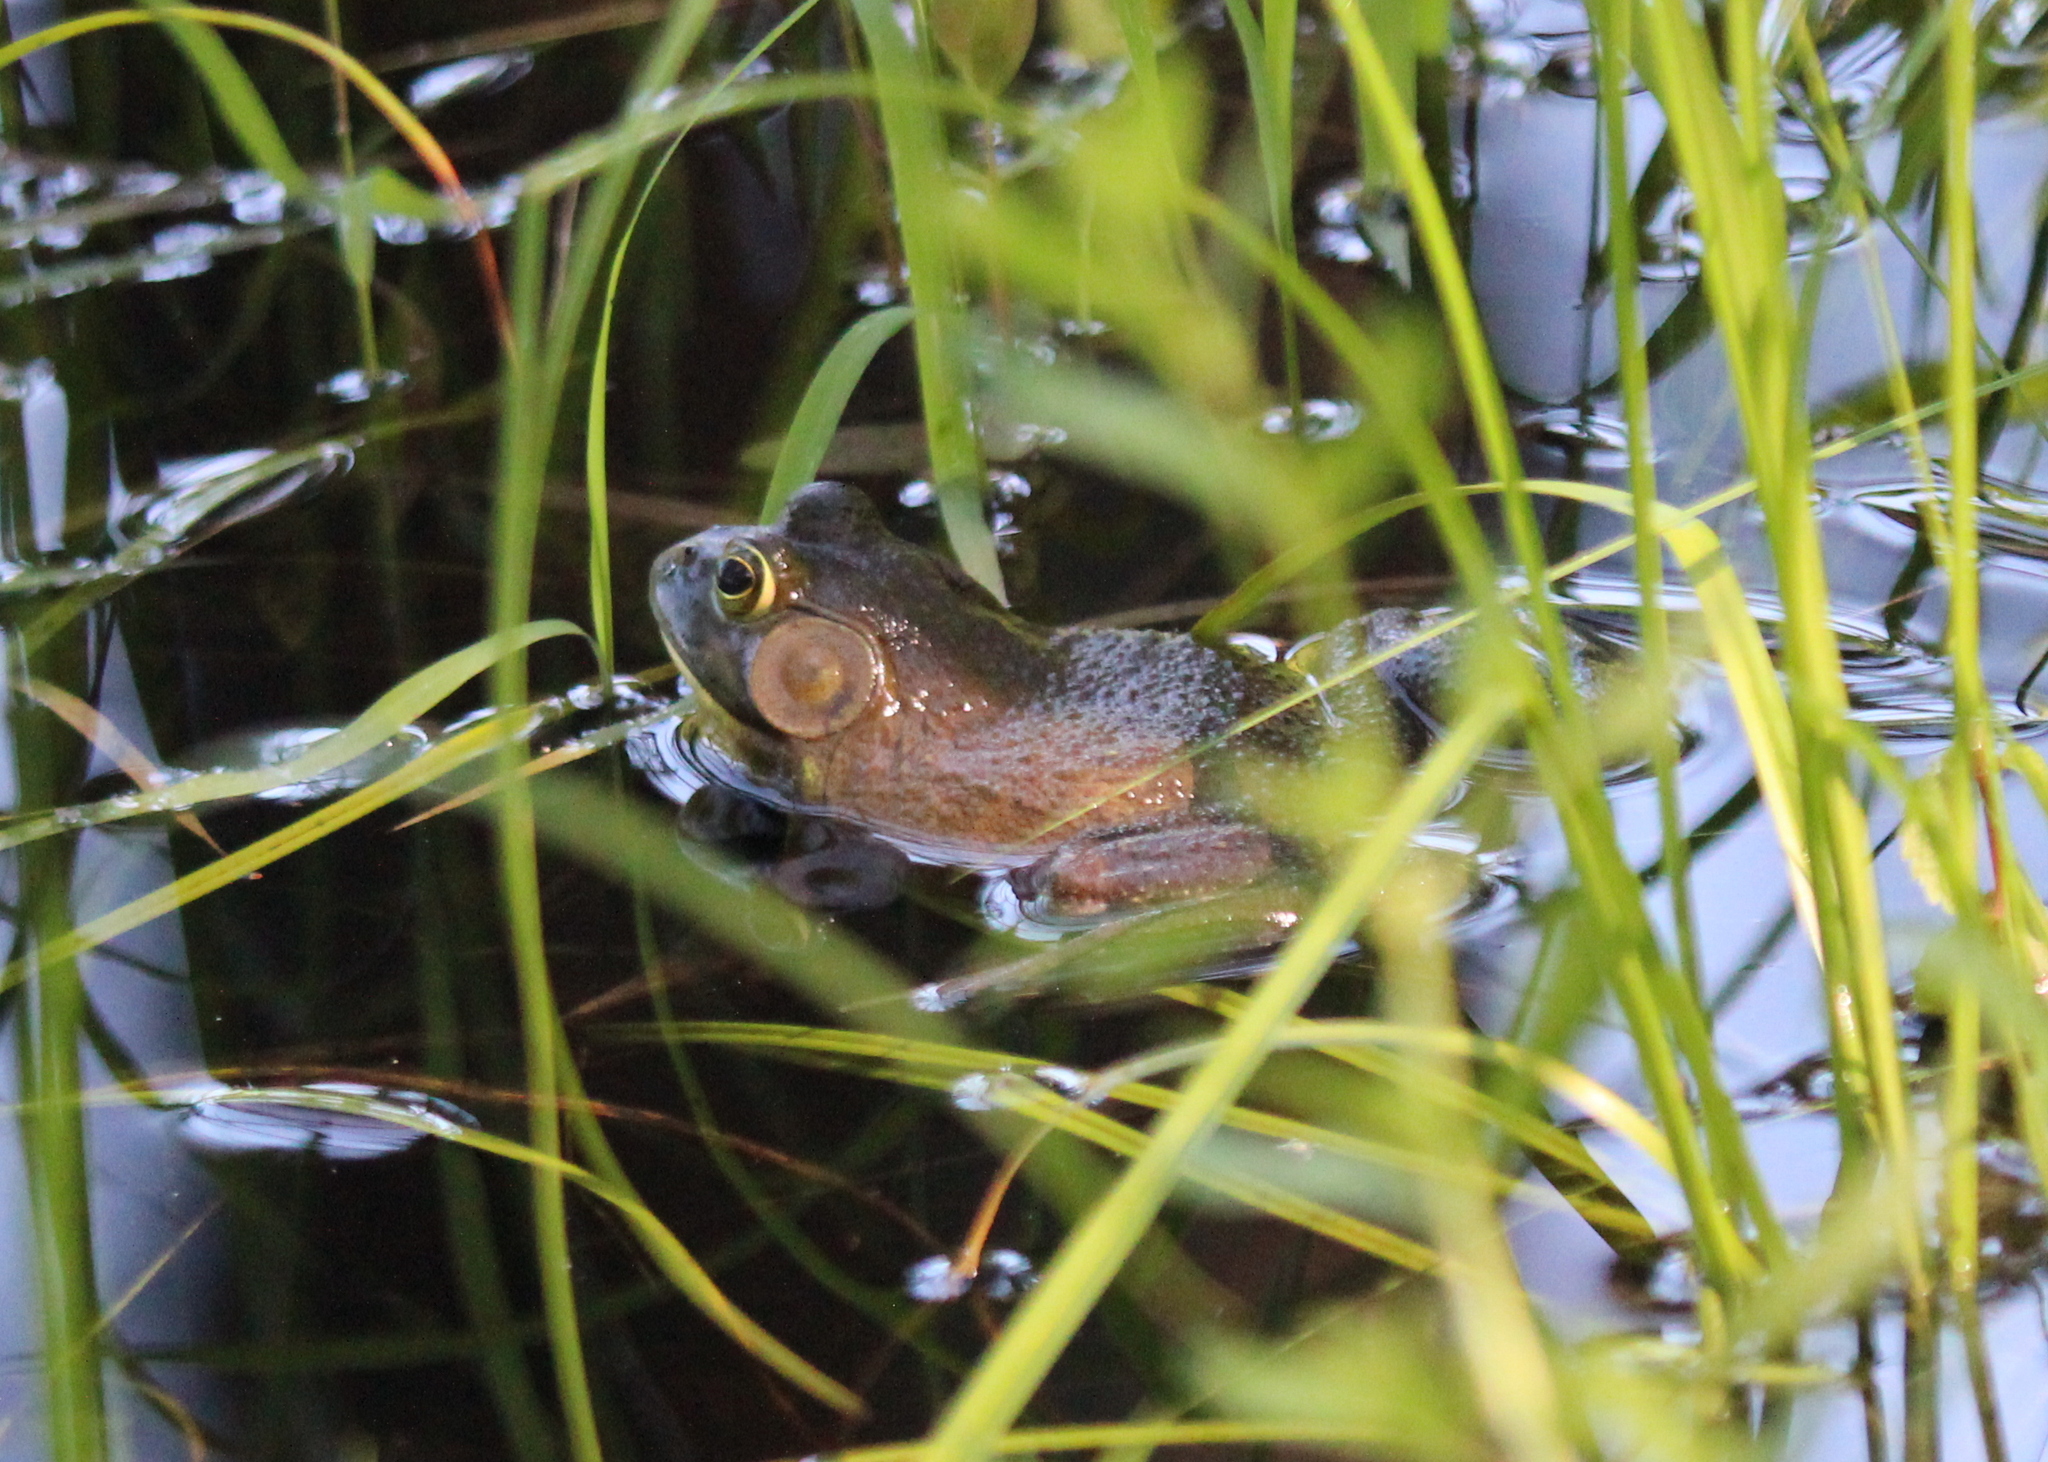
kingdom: Animalia
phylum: Chordata
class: Amphibia
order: Anura
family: Ranidae
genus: Lithobates
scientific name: Lithobates catesbeianus
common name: American bullfrog
